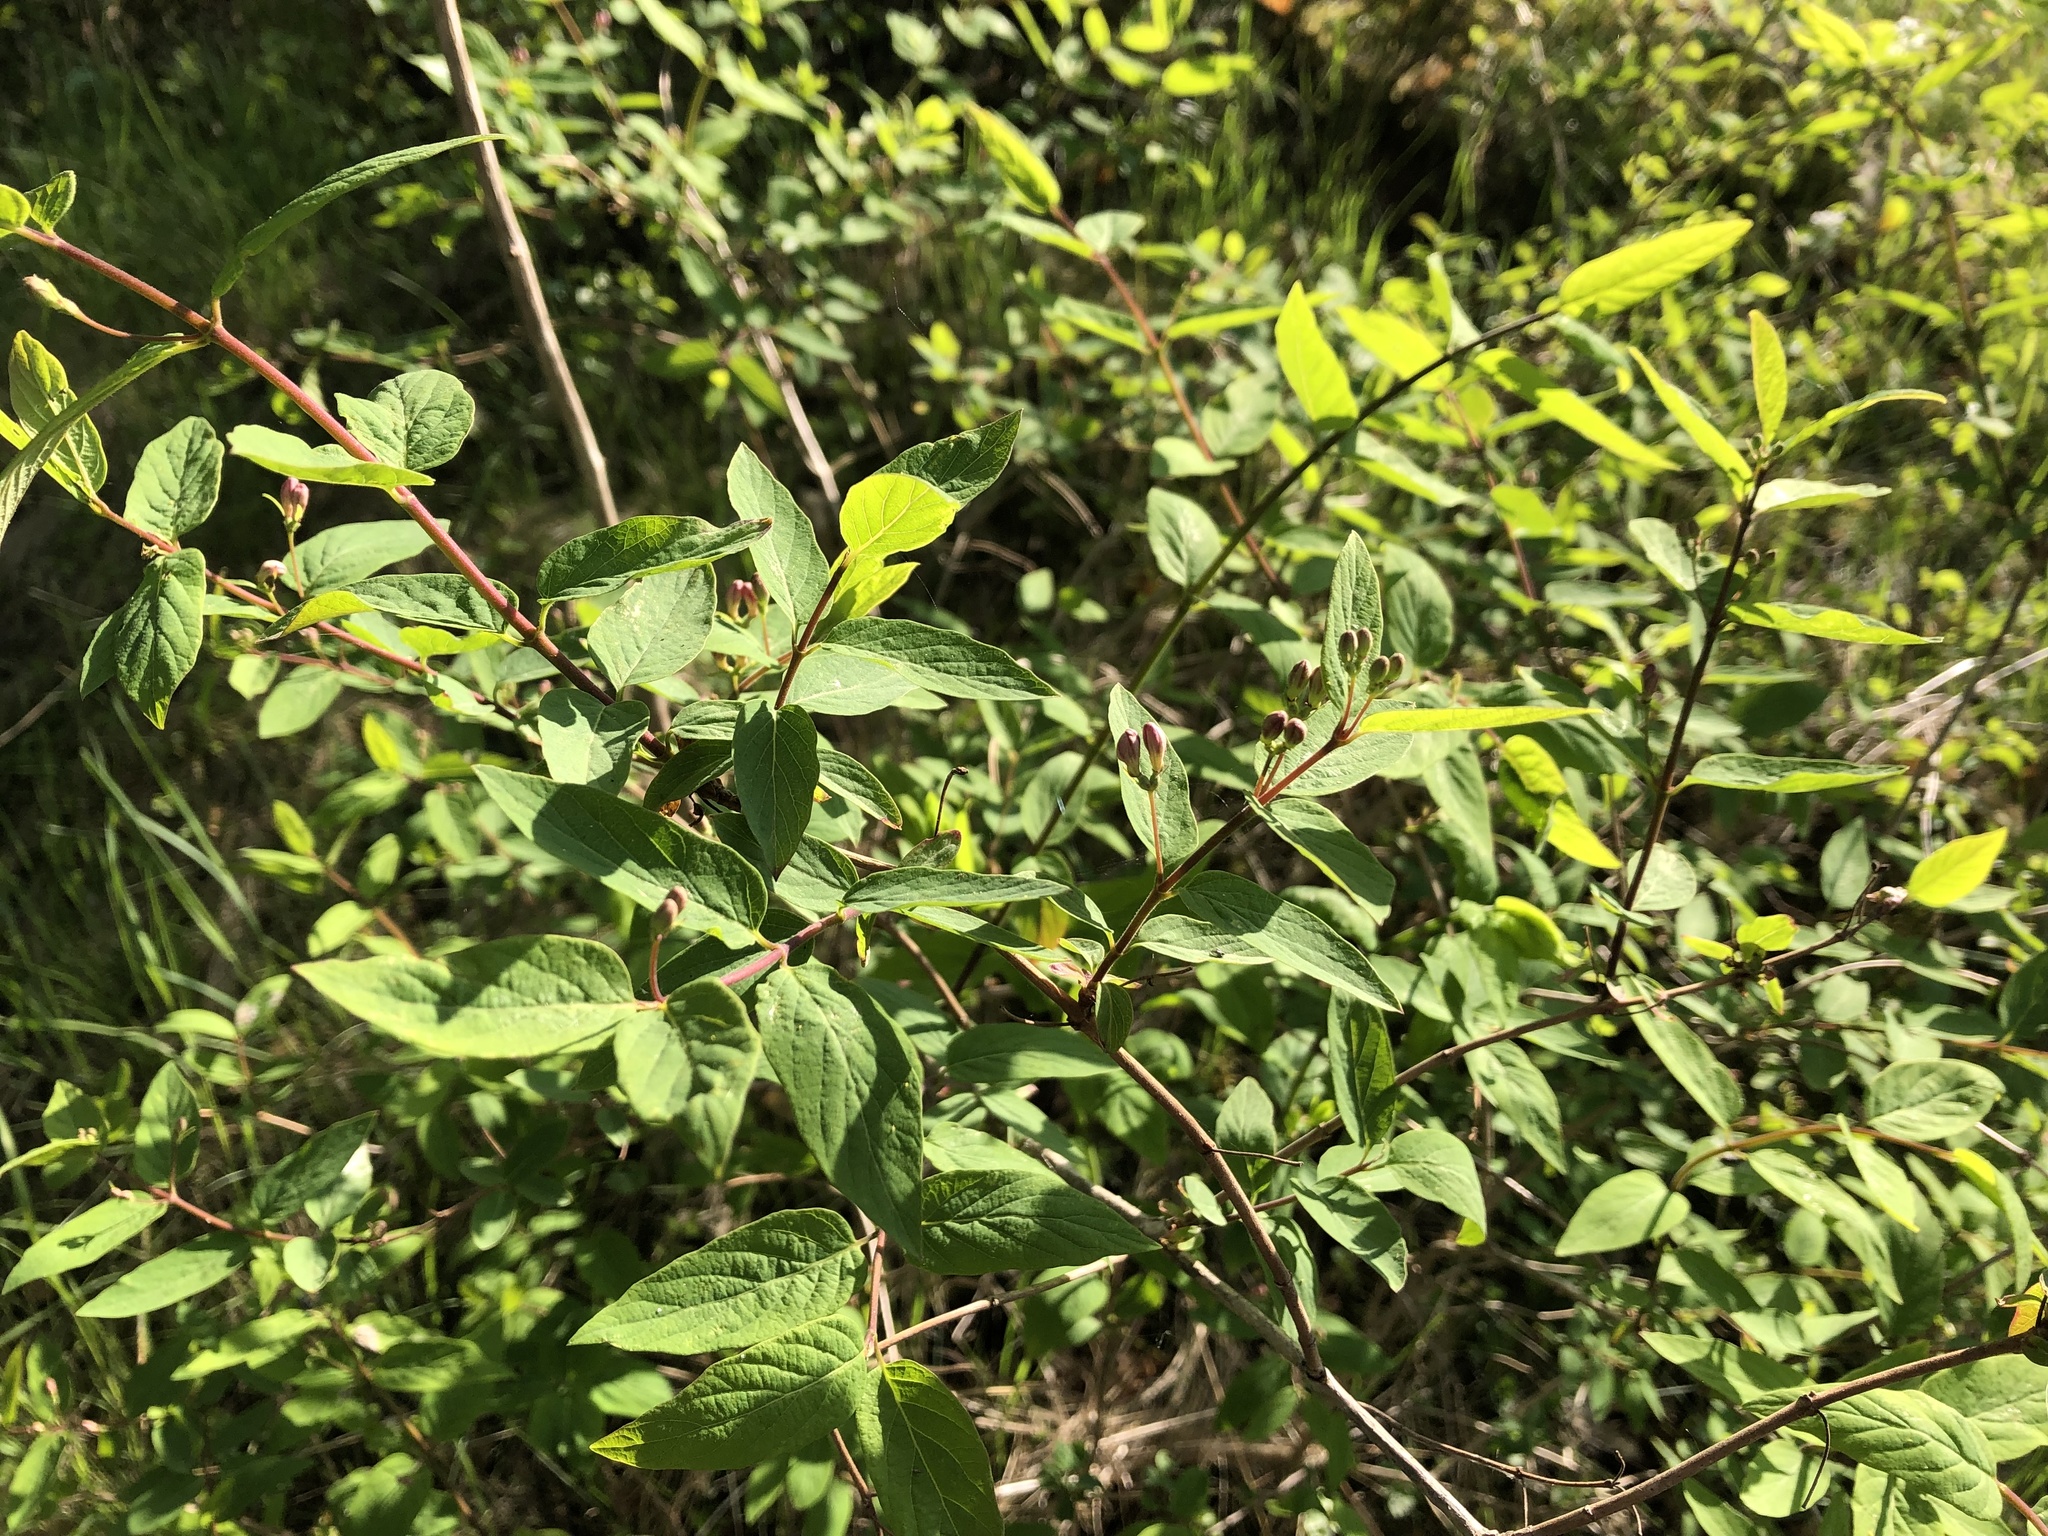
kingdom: Plantae
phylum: Tracheophyta
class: Magnoliopsida
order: Dipsacales
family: Caprifoliaceae
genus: Lonicera
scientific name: Lonicera tatarica
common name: Tatarian honeysuckle
